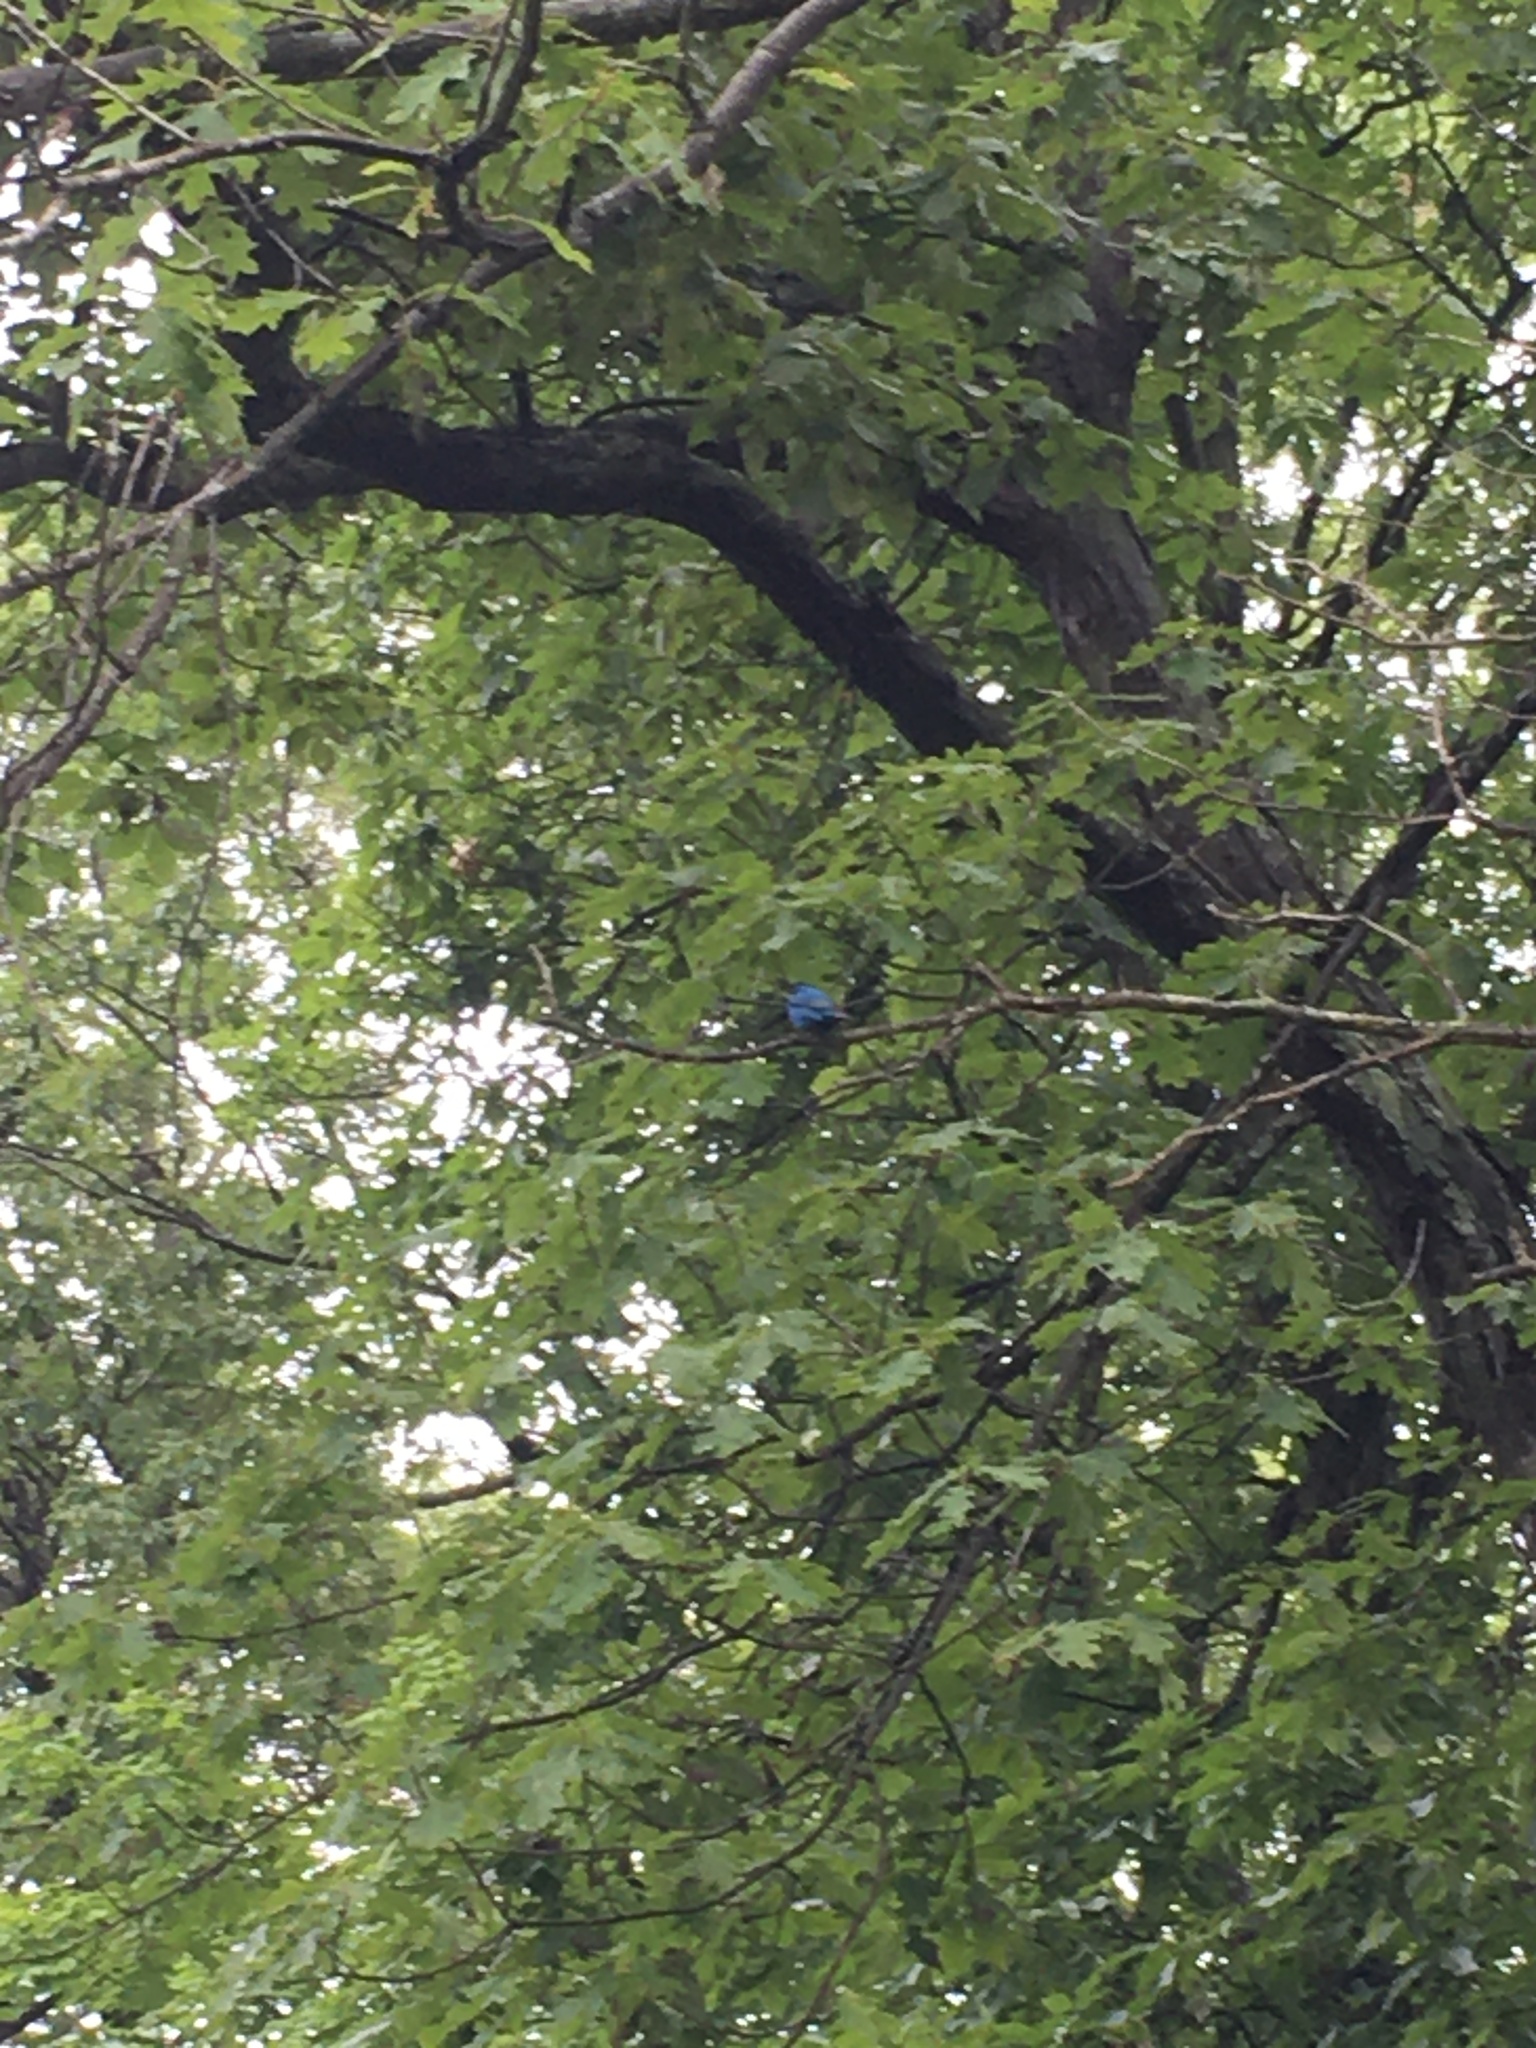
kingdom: Animalia
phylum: Chordata
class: Aves
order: Passeriformes
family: Cardinalidae
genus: Passerina
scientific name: Passerina cyanea
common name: Indigo bunting
